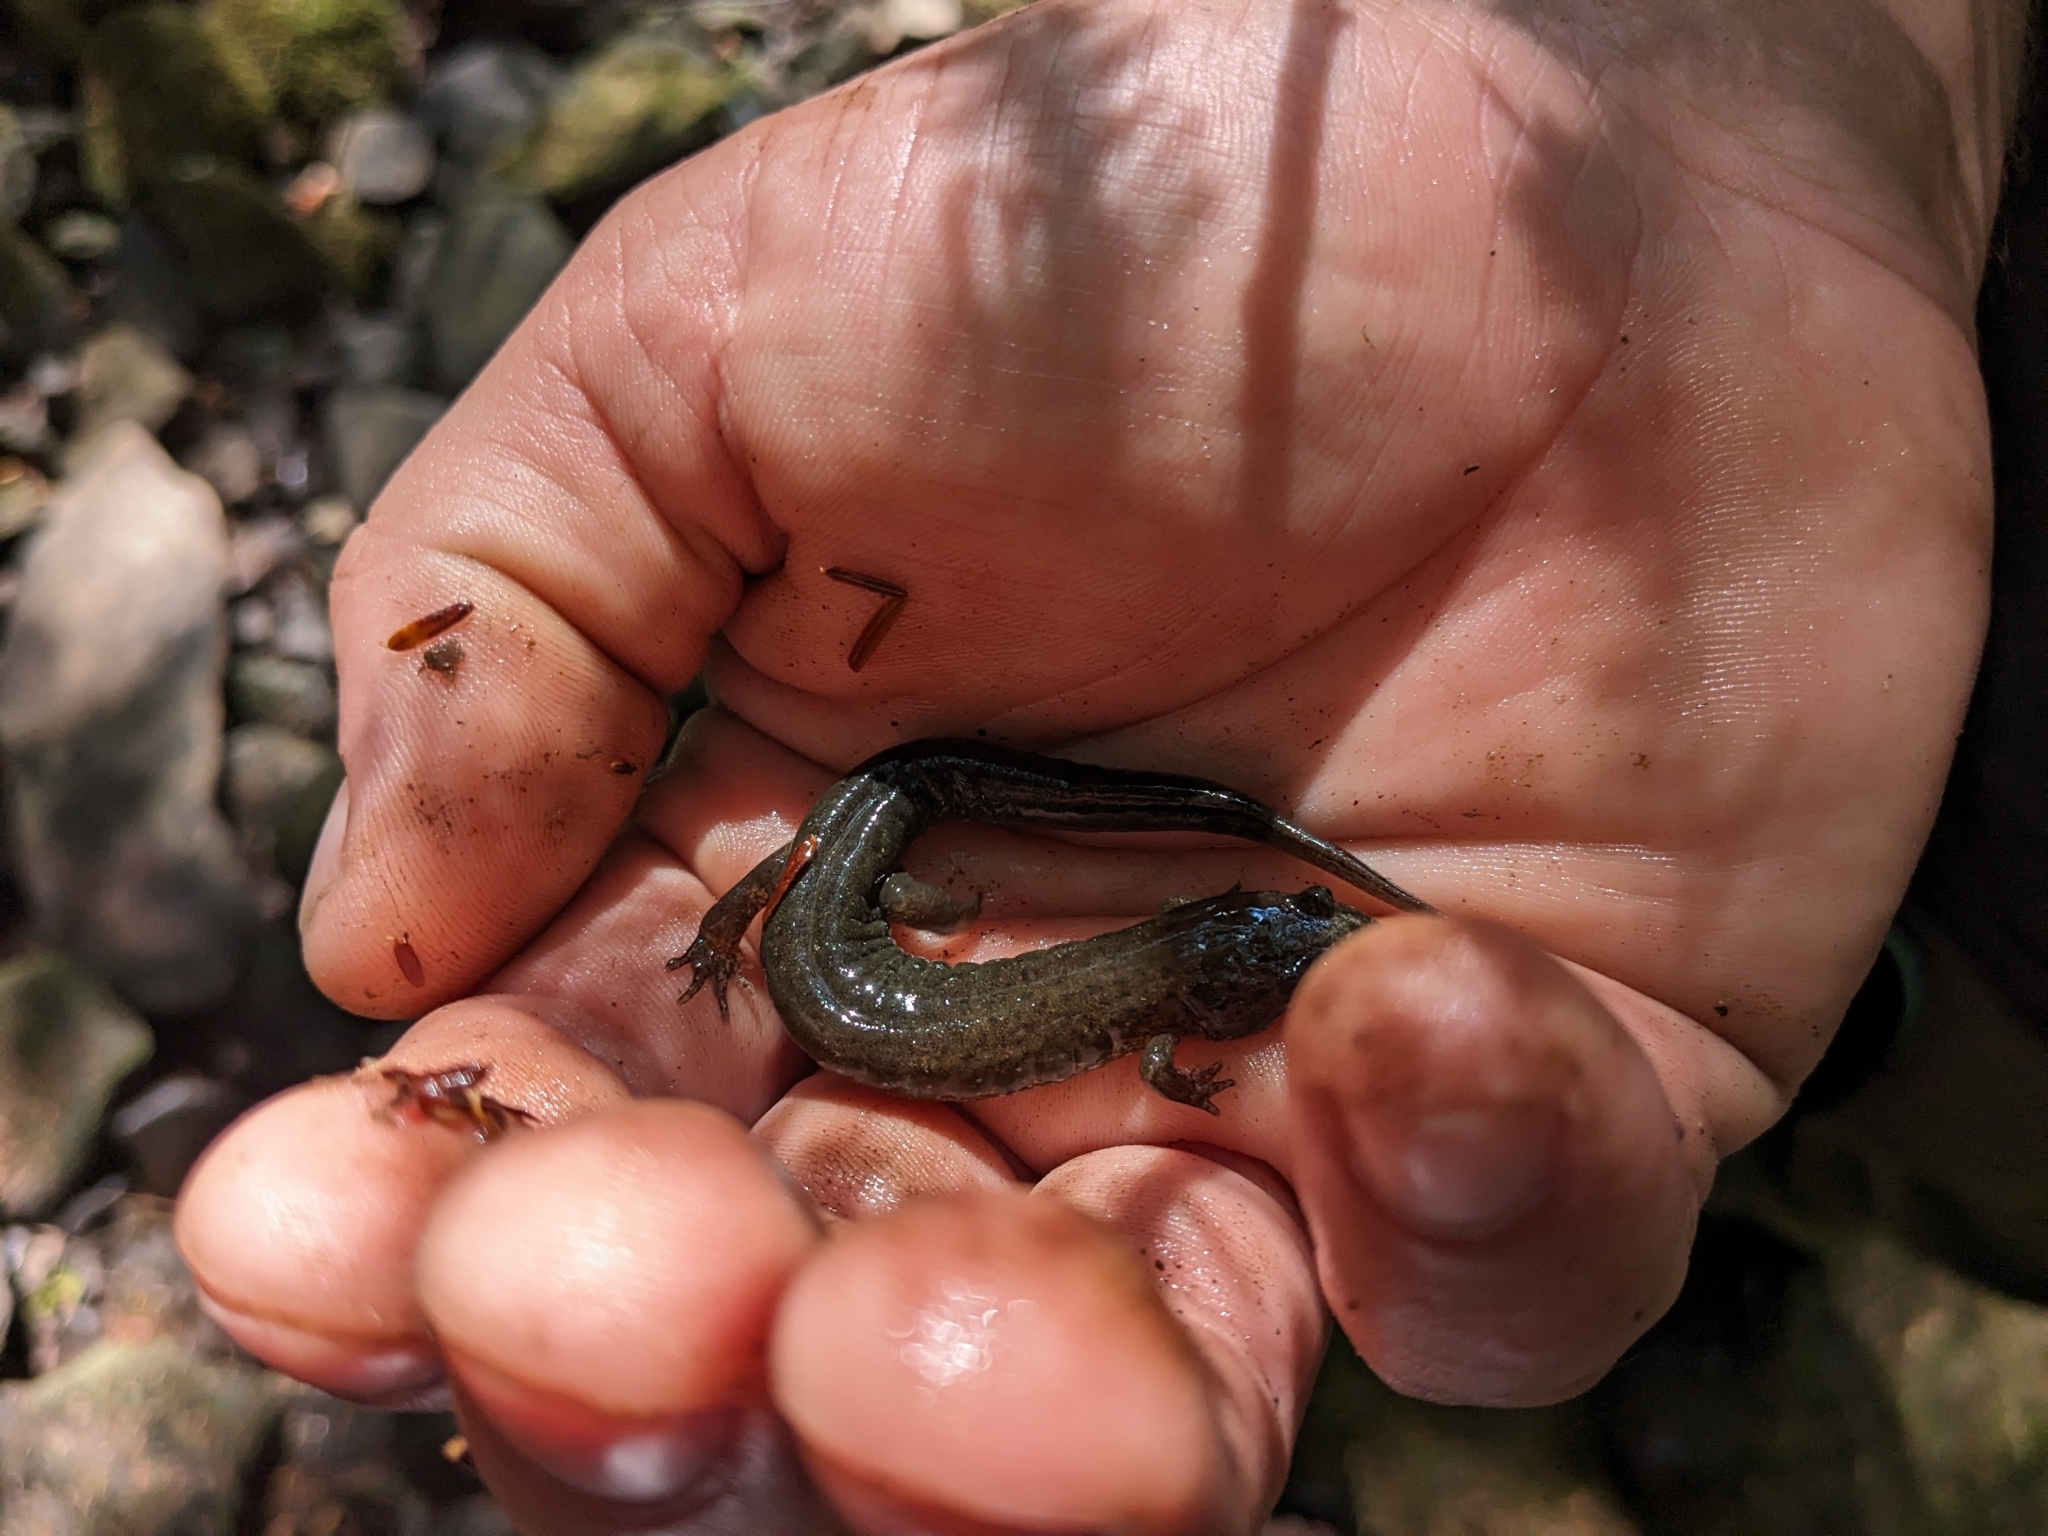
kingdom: Animalia
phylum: Chordata
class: Amphibia
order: Caudata
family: Plethodontidae
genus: Desmognathus
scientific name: Desmognathus fuscus
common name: Northern dusky salamander
